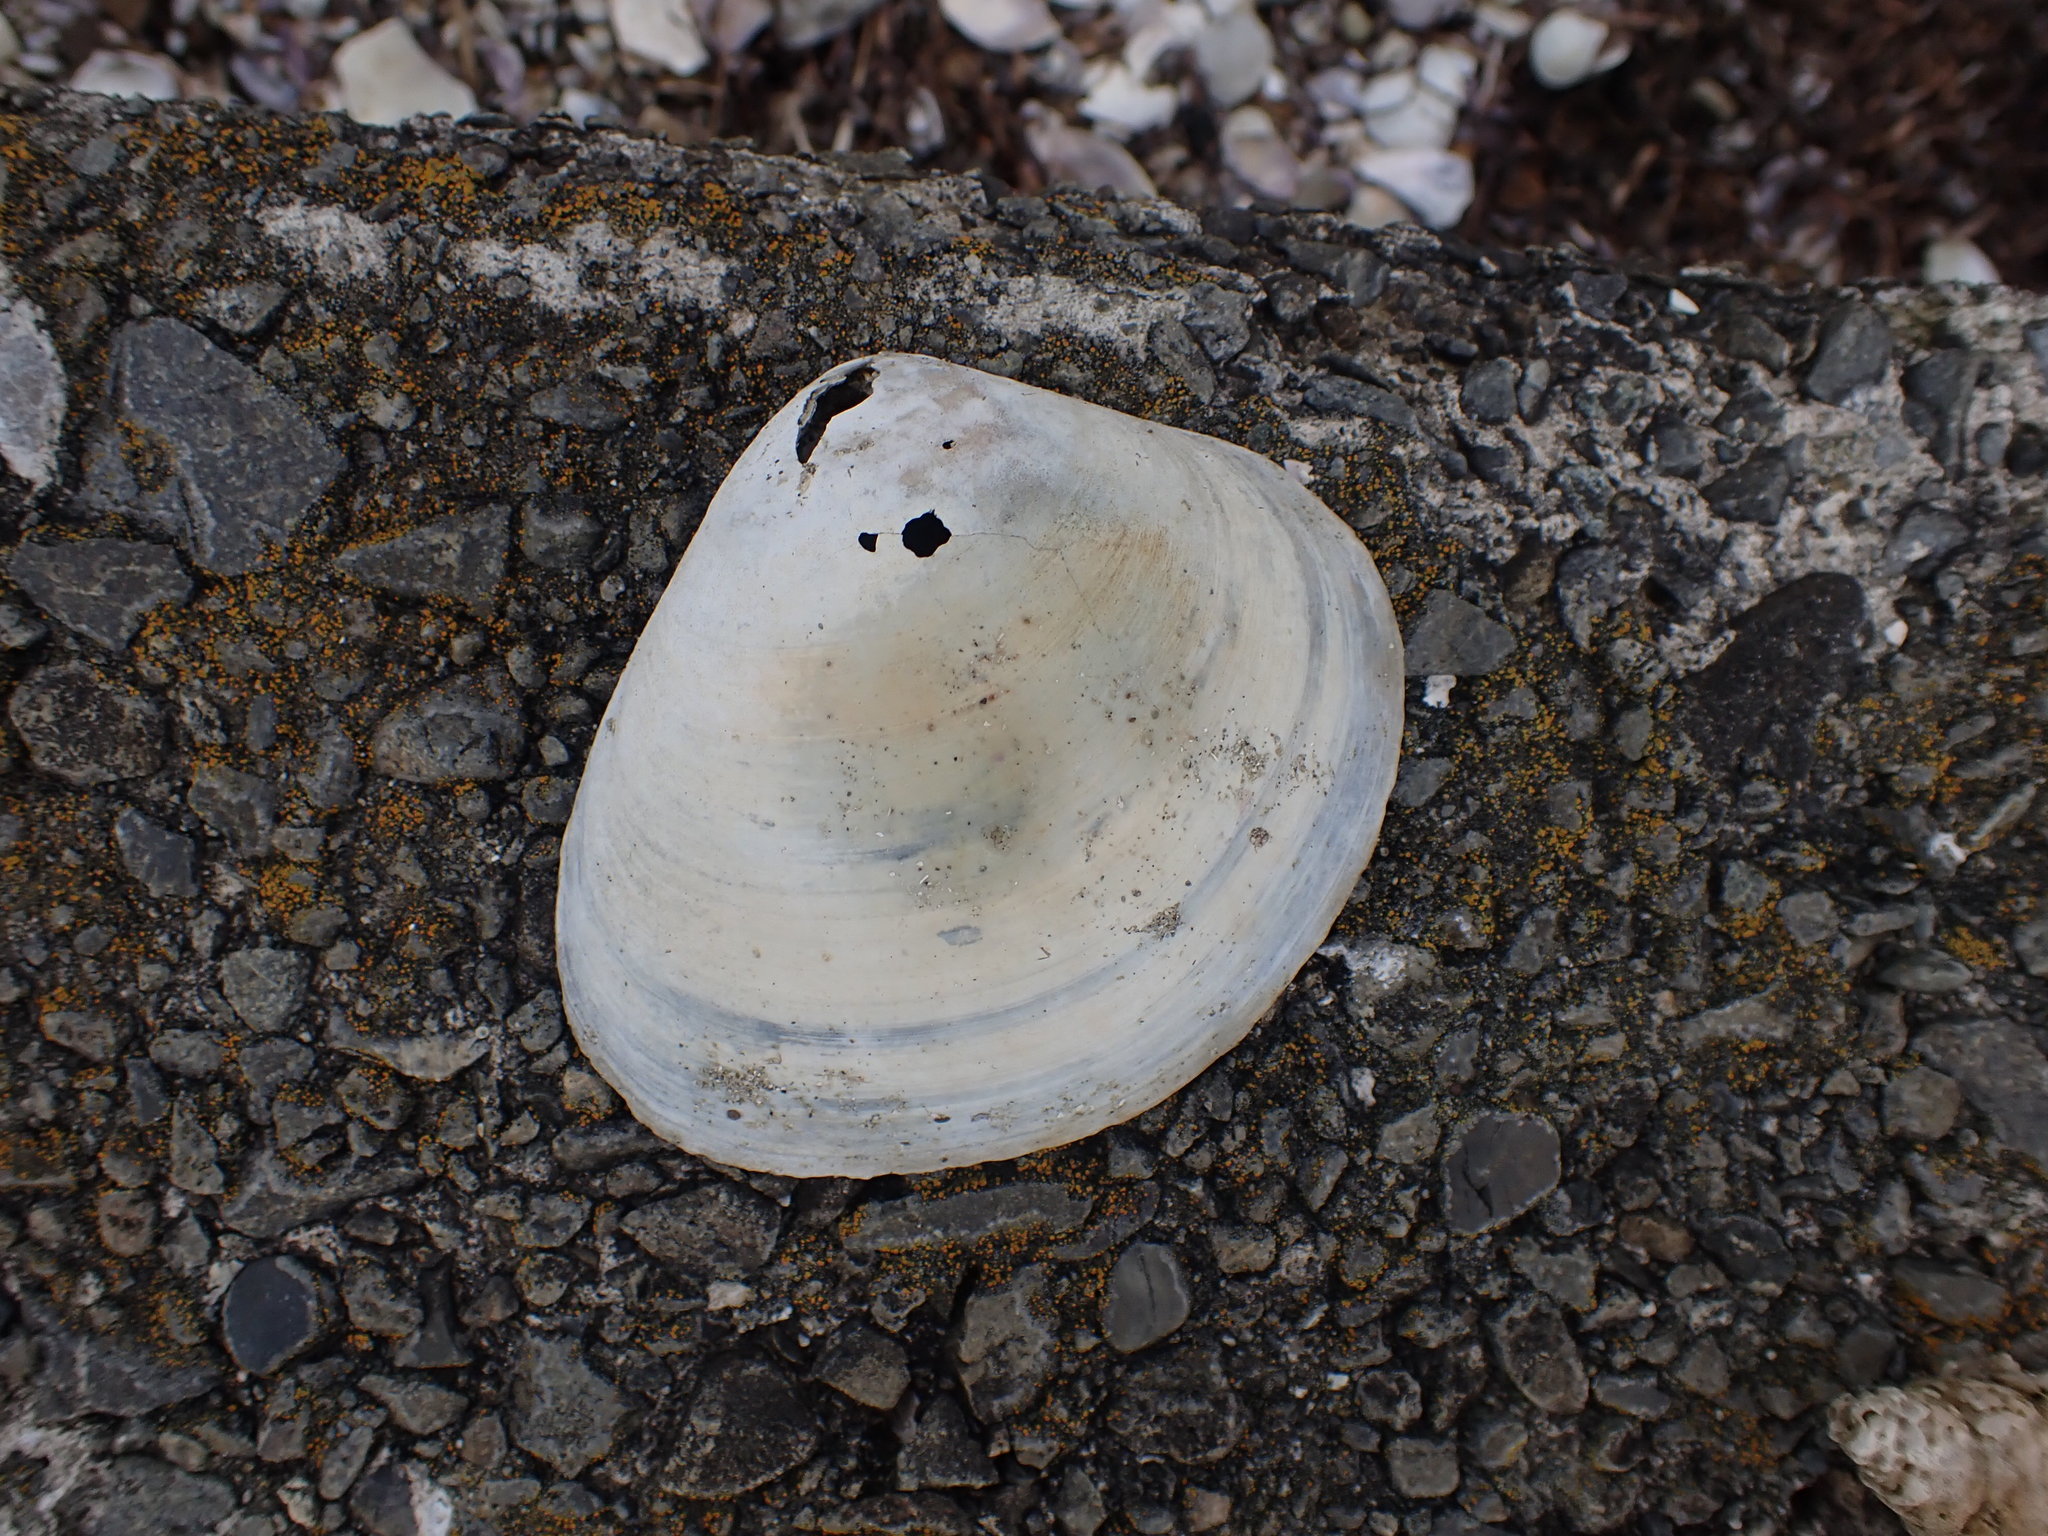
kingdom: Animalia
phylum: Mollusca
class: Bivalvia
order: Venerida
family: Mactridae
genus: Cyclomactra
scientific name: Cyclomactra ovata
